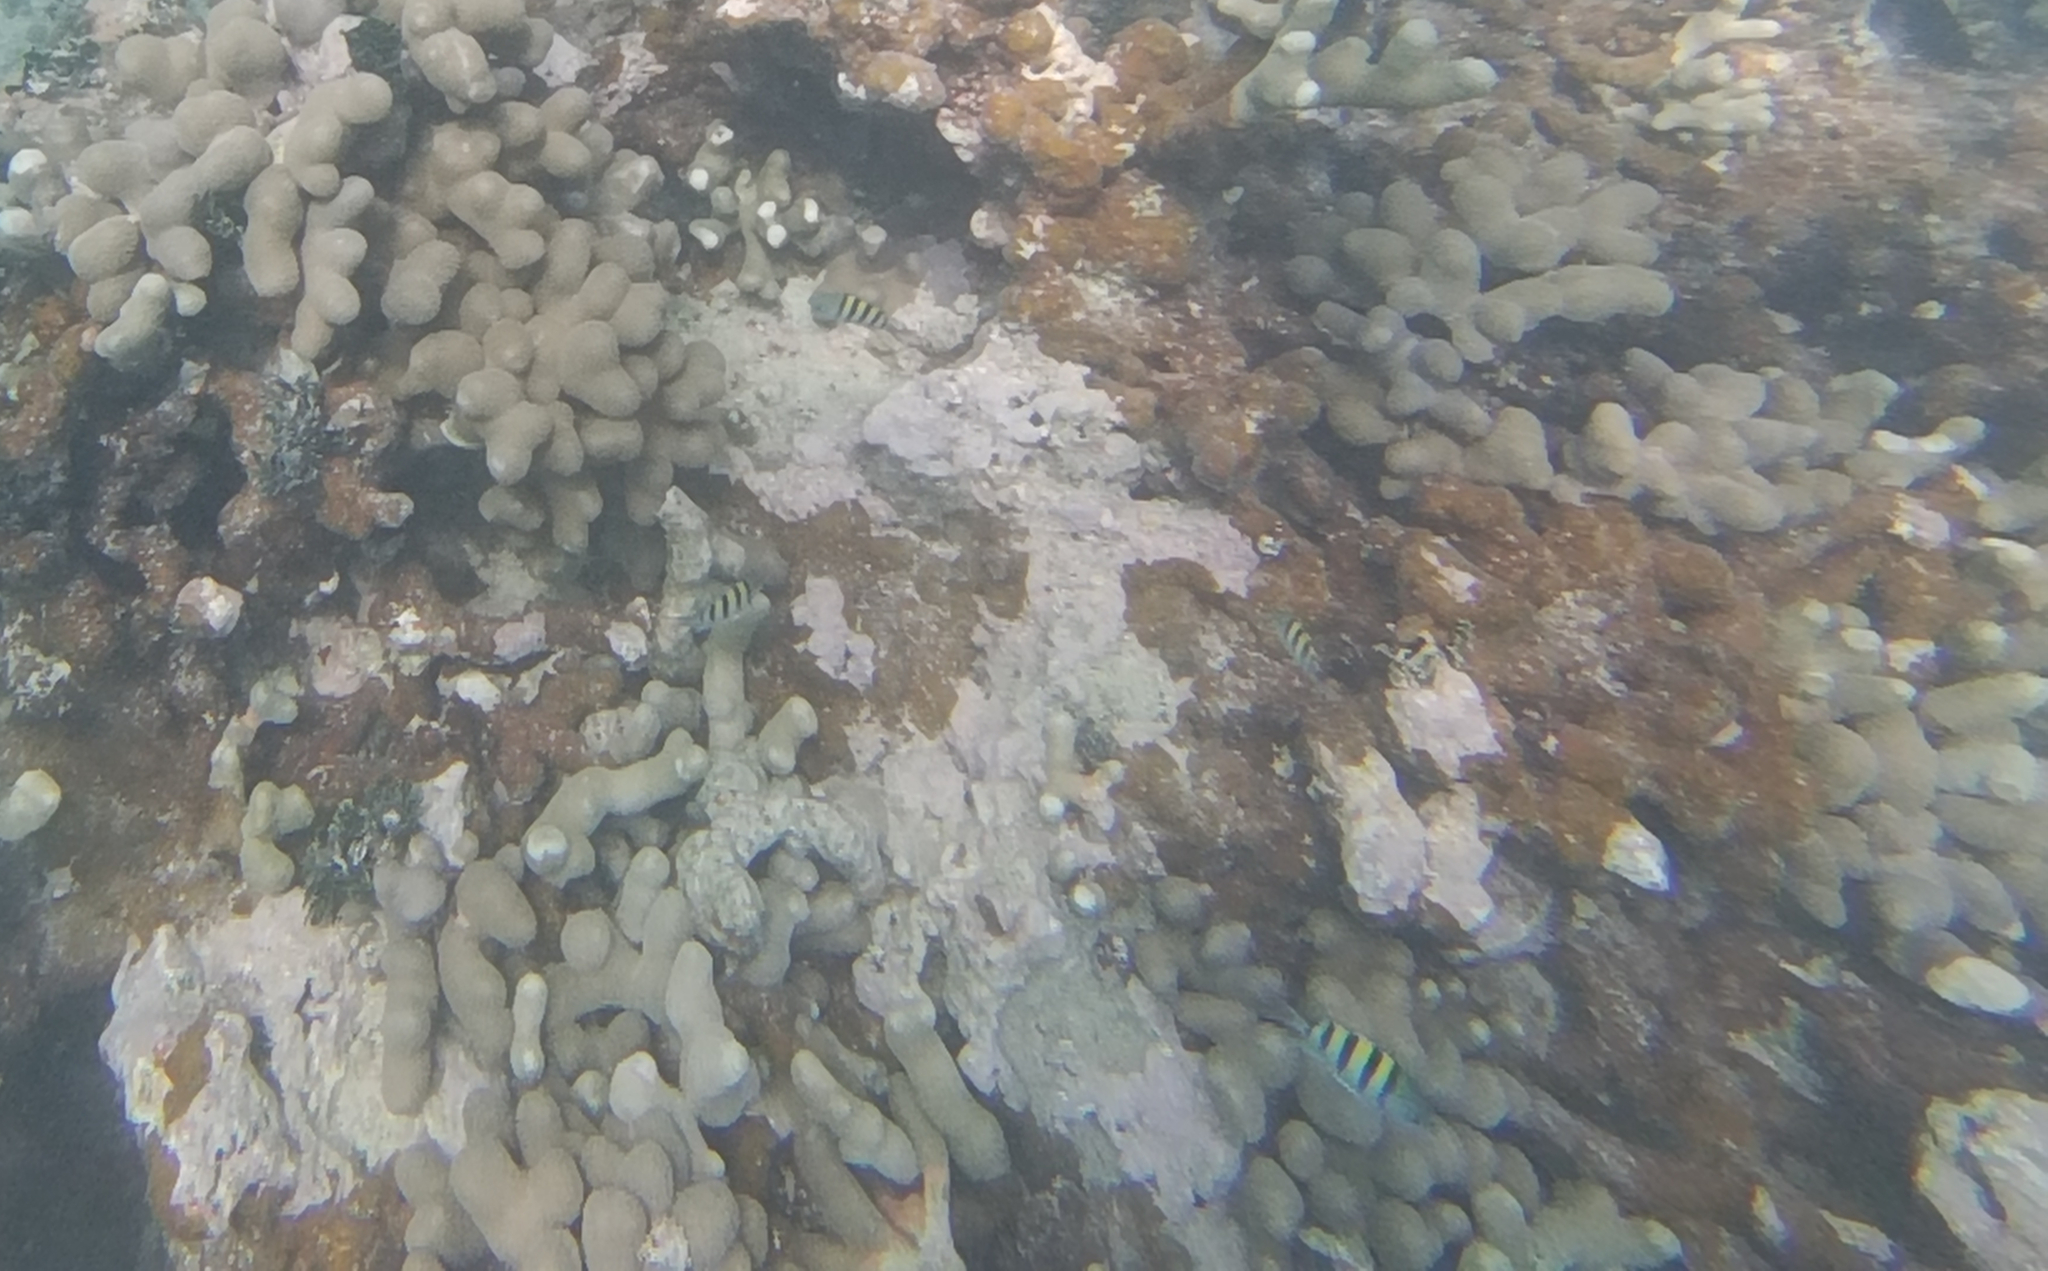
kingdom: Animalia
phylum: Chordata
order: Perciformes
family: Pomacentridae
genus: Abudefduf
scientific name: Abudefduf saxatilis
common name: Sergeant major
